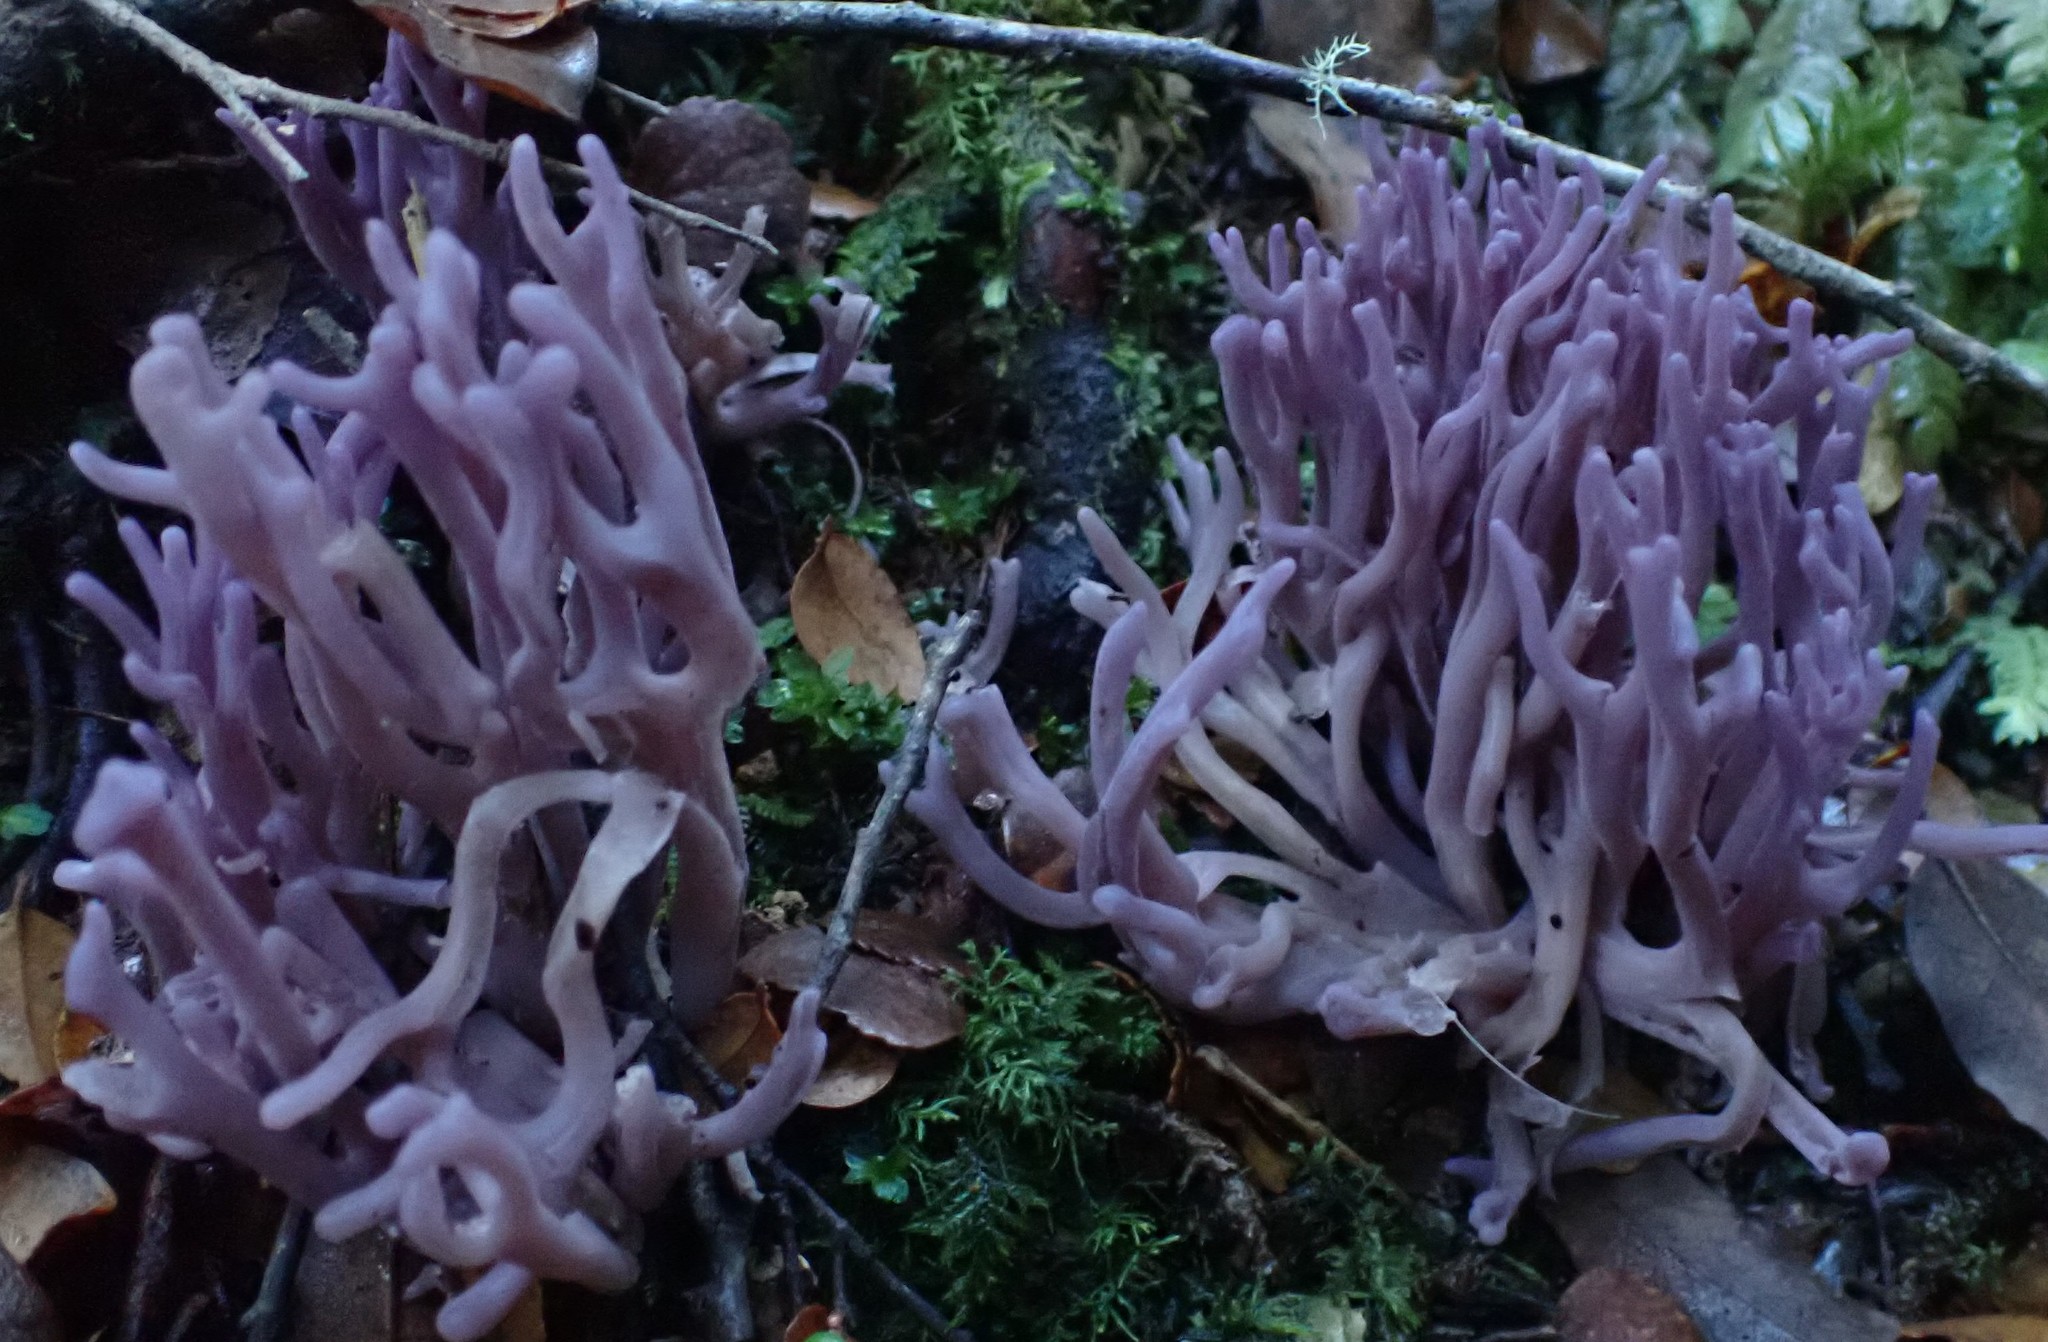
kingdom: Fungi
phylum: Basidiomycota
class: Agaricomycetes
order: Agaricales
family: Clavariaceae
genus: Clavaria
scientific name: Clavaria zollingeri
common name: Violet coral
